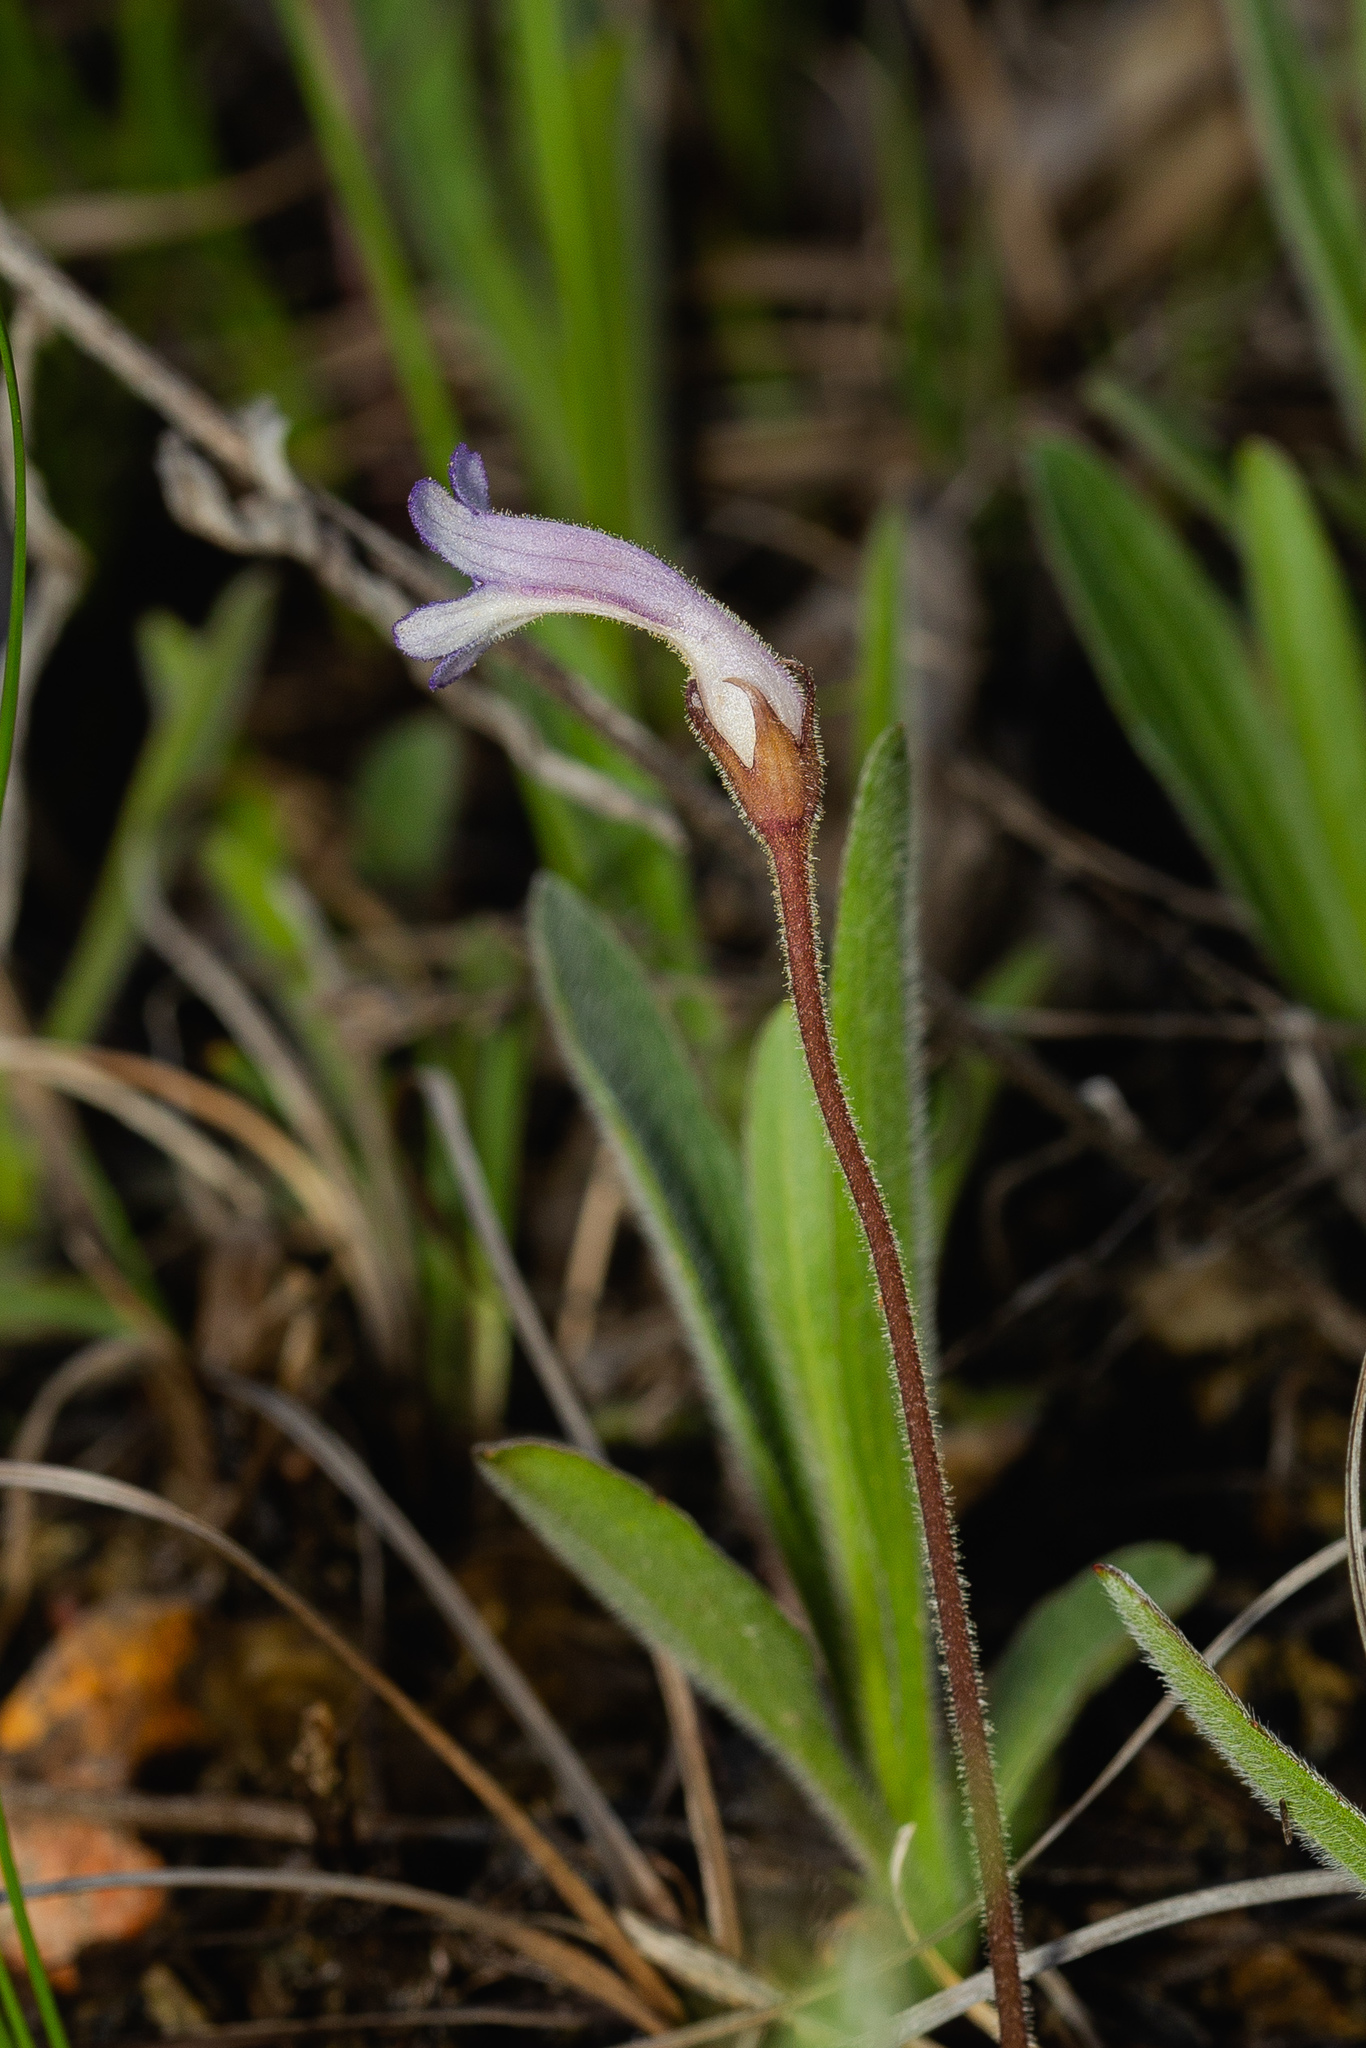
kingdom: Plantae
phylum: Tracheophyta
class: Magnoliopsida
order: Lamiales
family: Orobanchaceae
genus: Aphyllon
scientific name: Aphyllon uniflorum
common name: One-flowered broomrape
